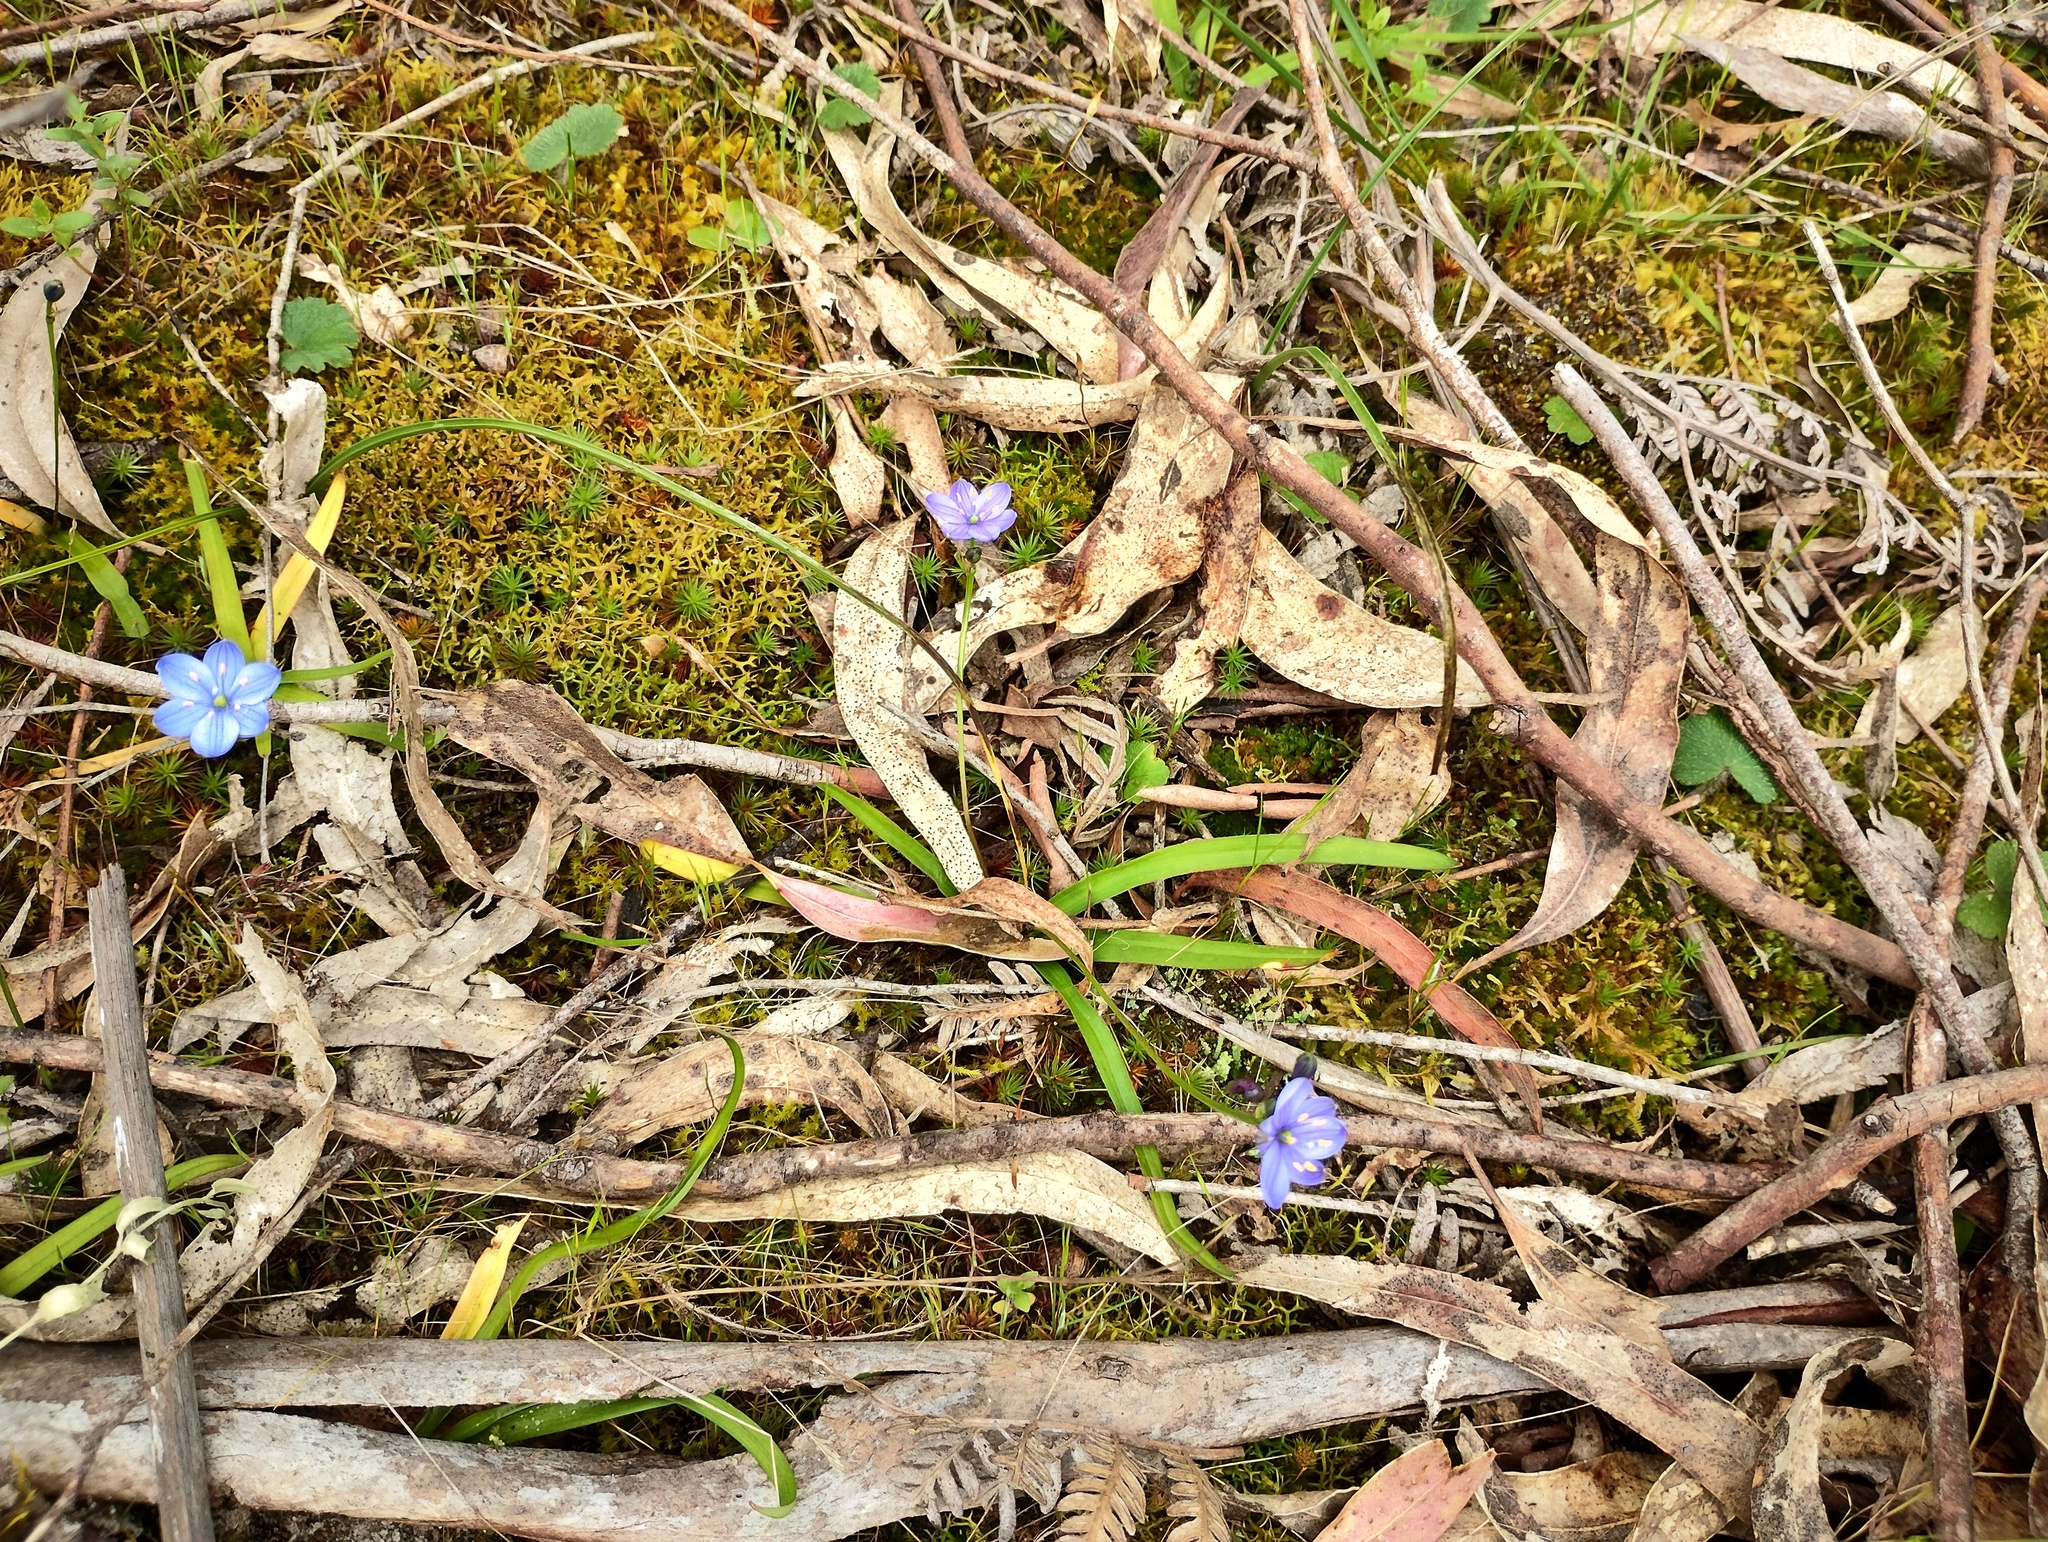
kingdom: Plantae
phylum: Tracheophyta
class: Liliopsida
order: Asparagales
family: Asphodelaceae
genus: Chamaescilla
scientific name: Chamaescilla corymbosa
